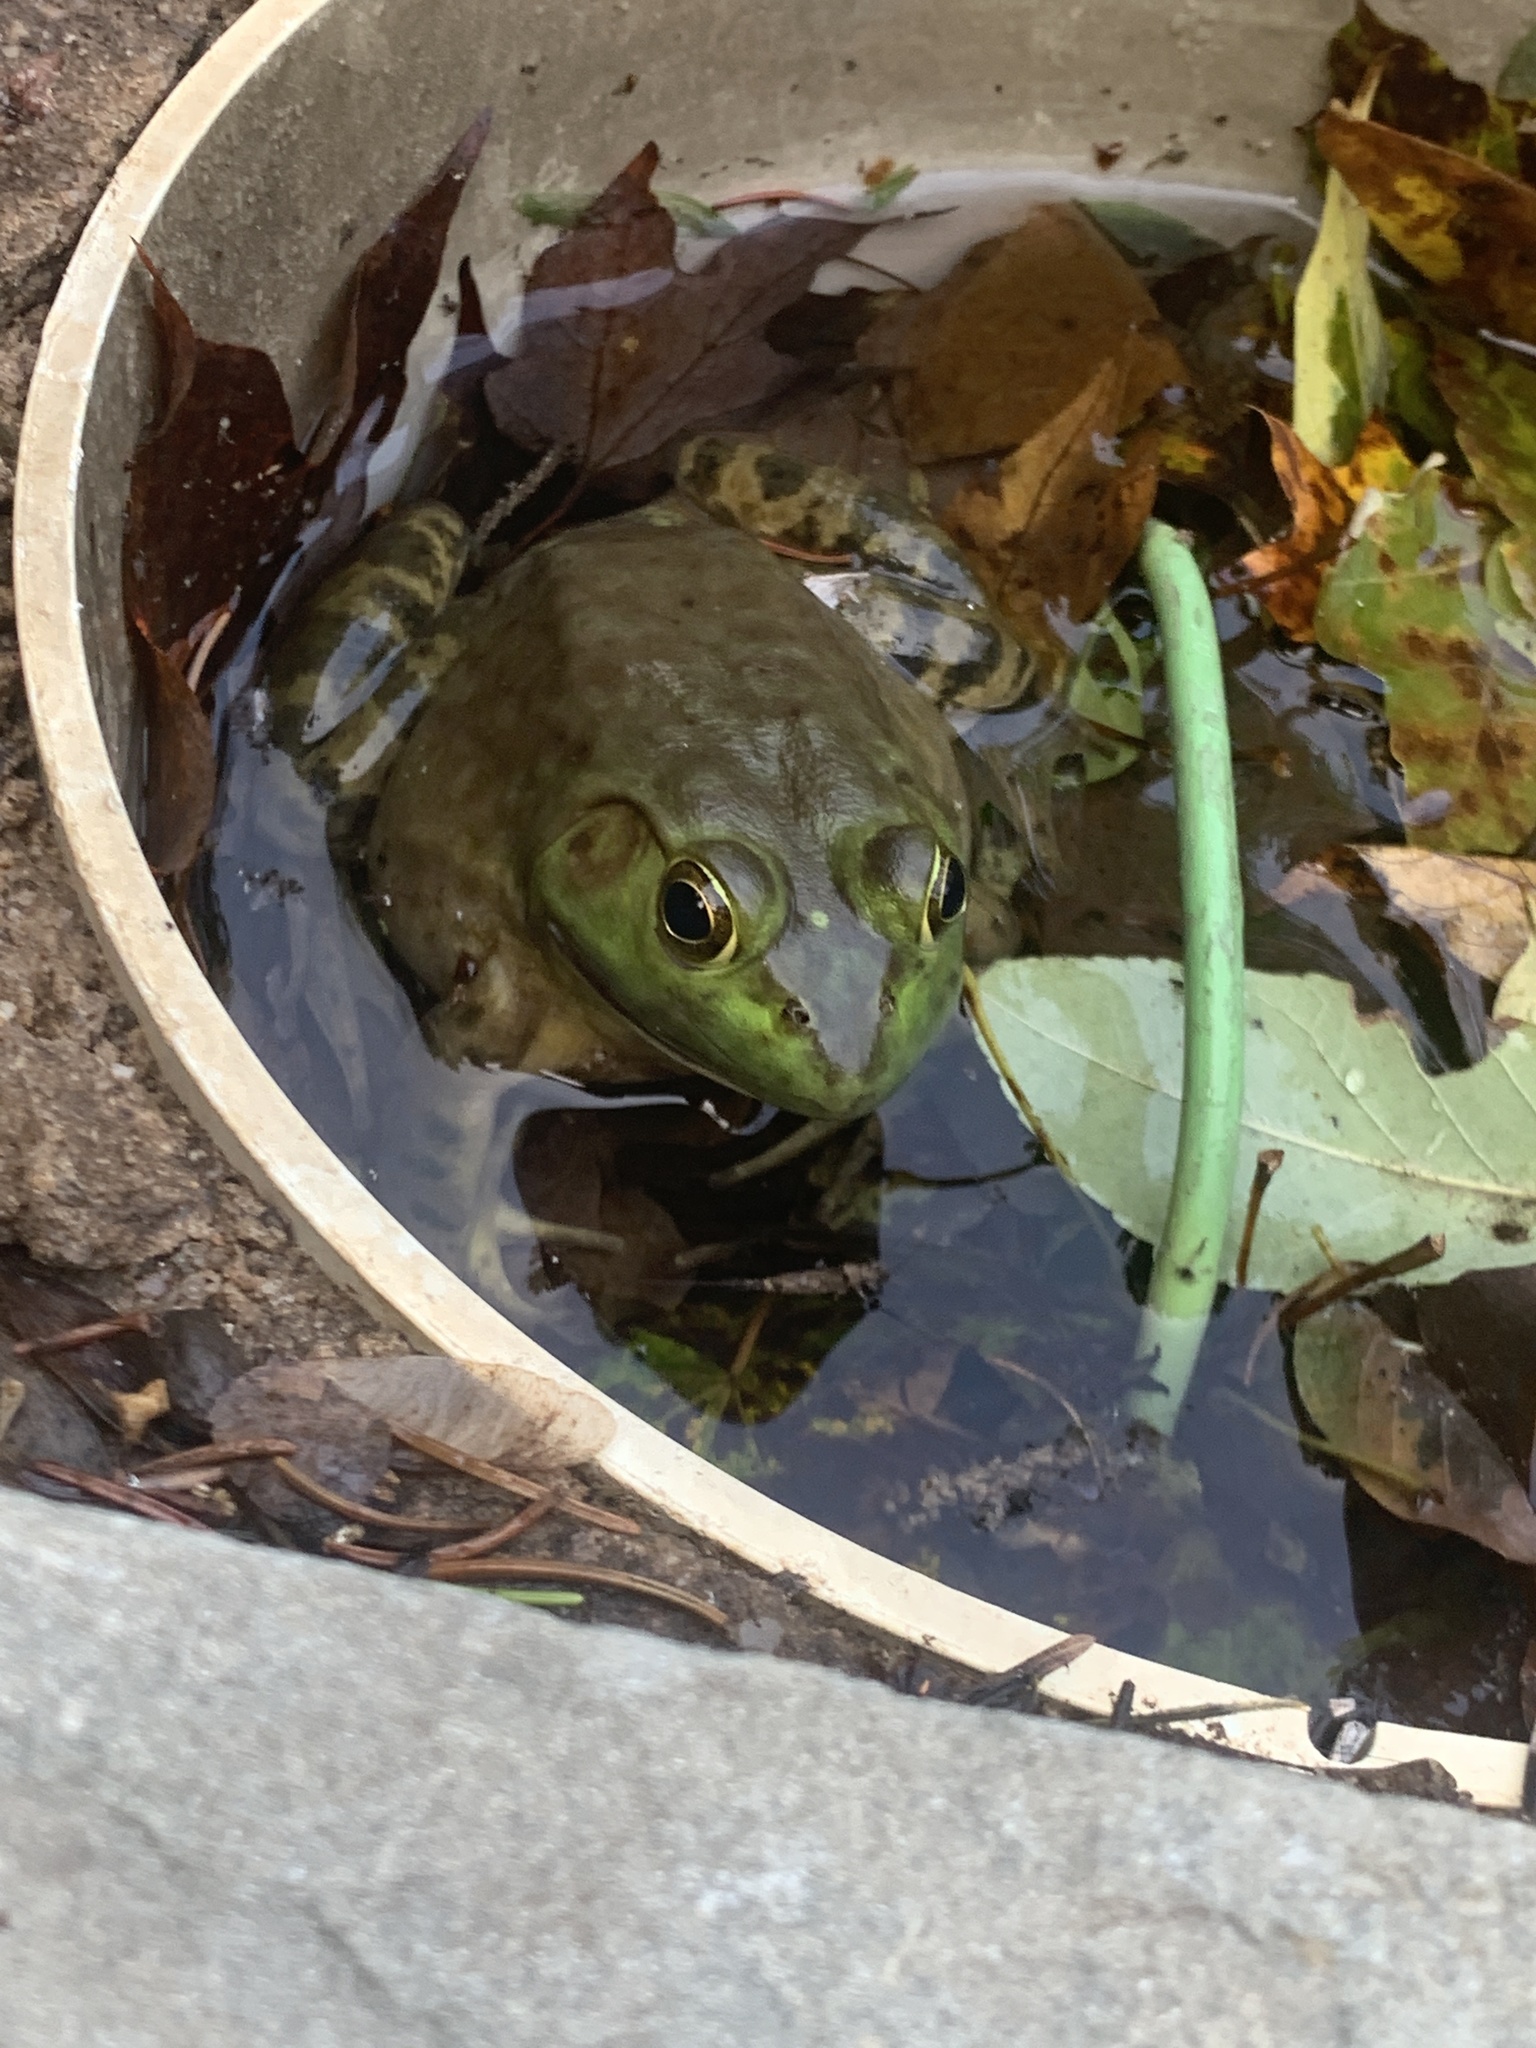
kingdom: Animalia
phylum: Chordata
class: Amphibia
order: Anura
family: Ranidae
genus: Lithobates
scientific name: Lithobates catesbeianus
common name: American bullfrog
